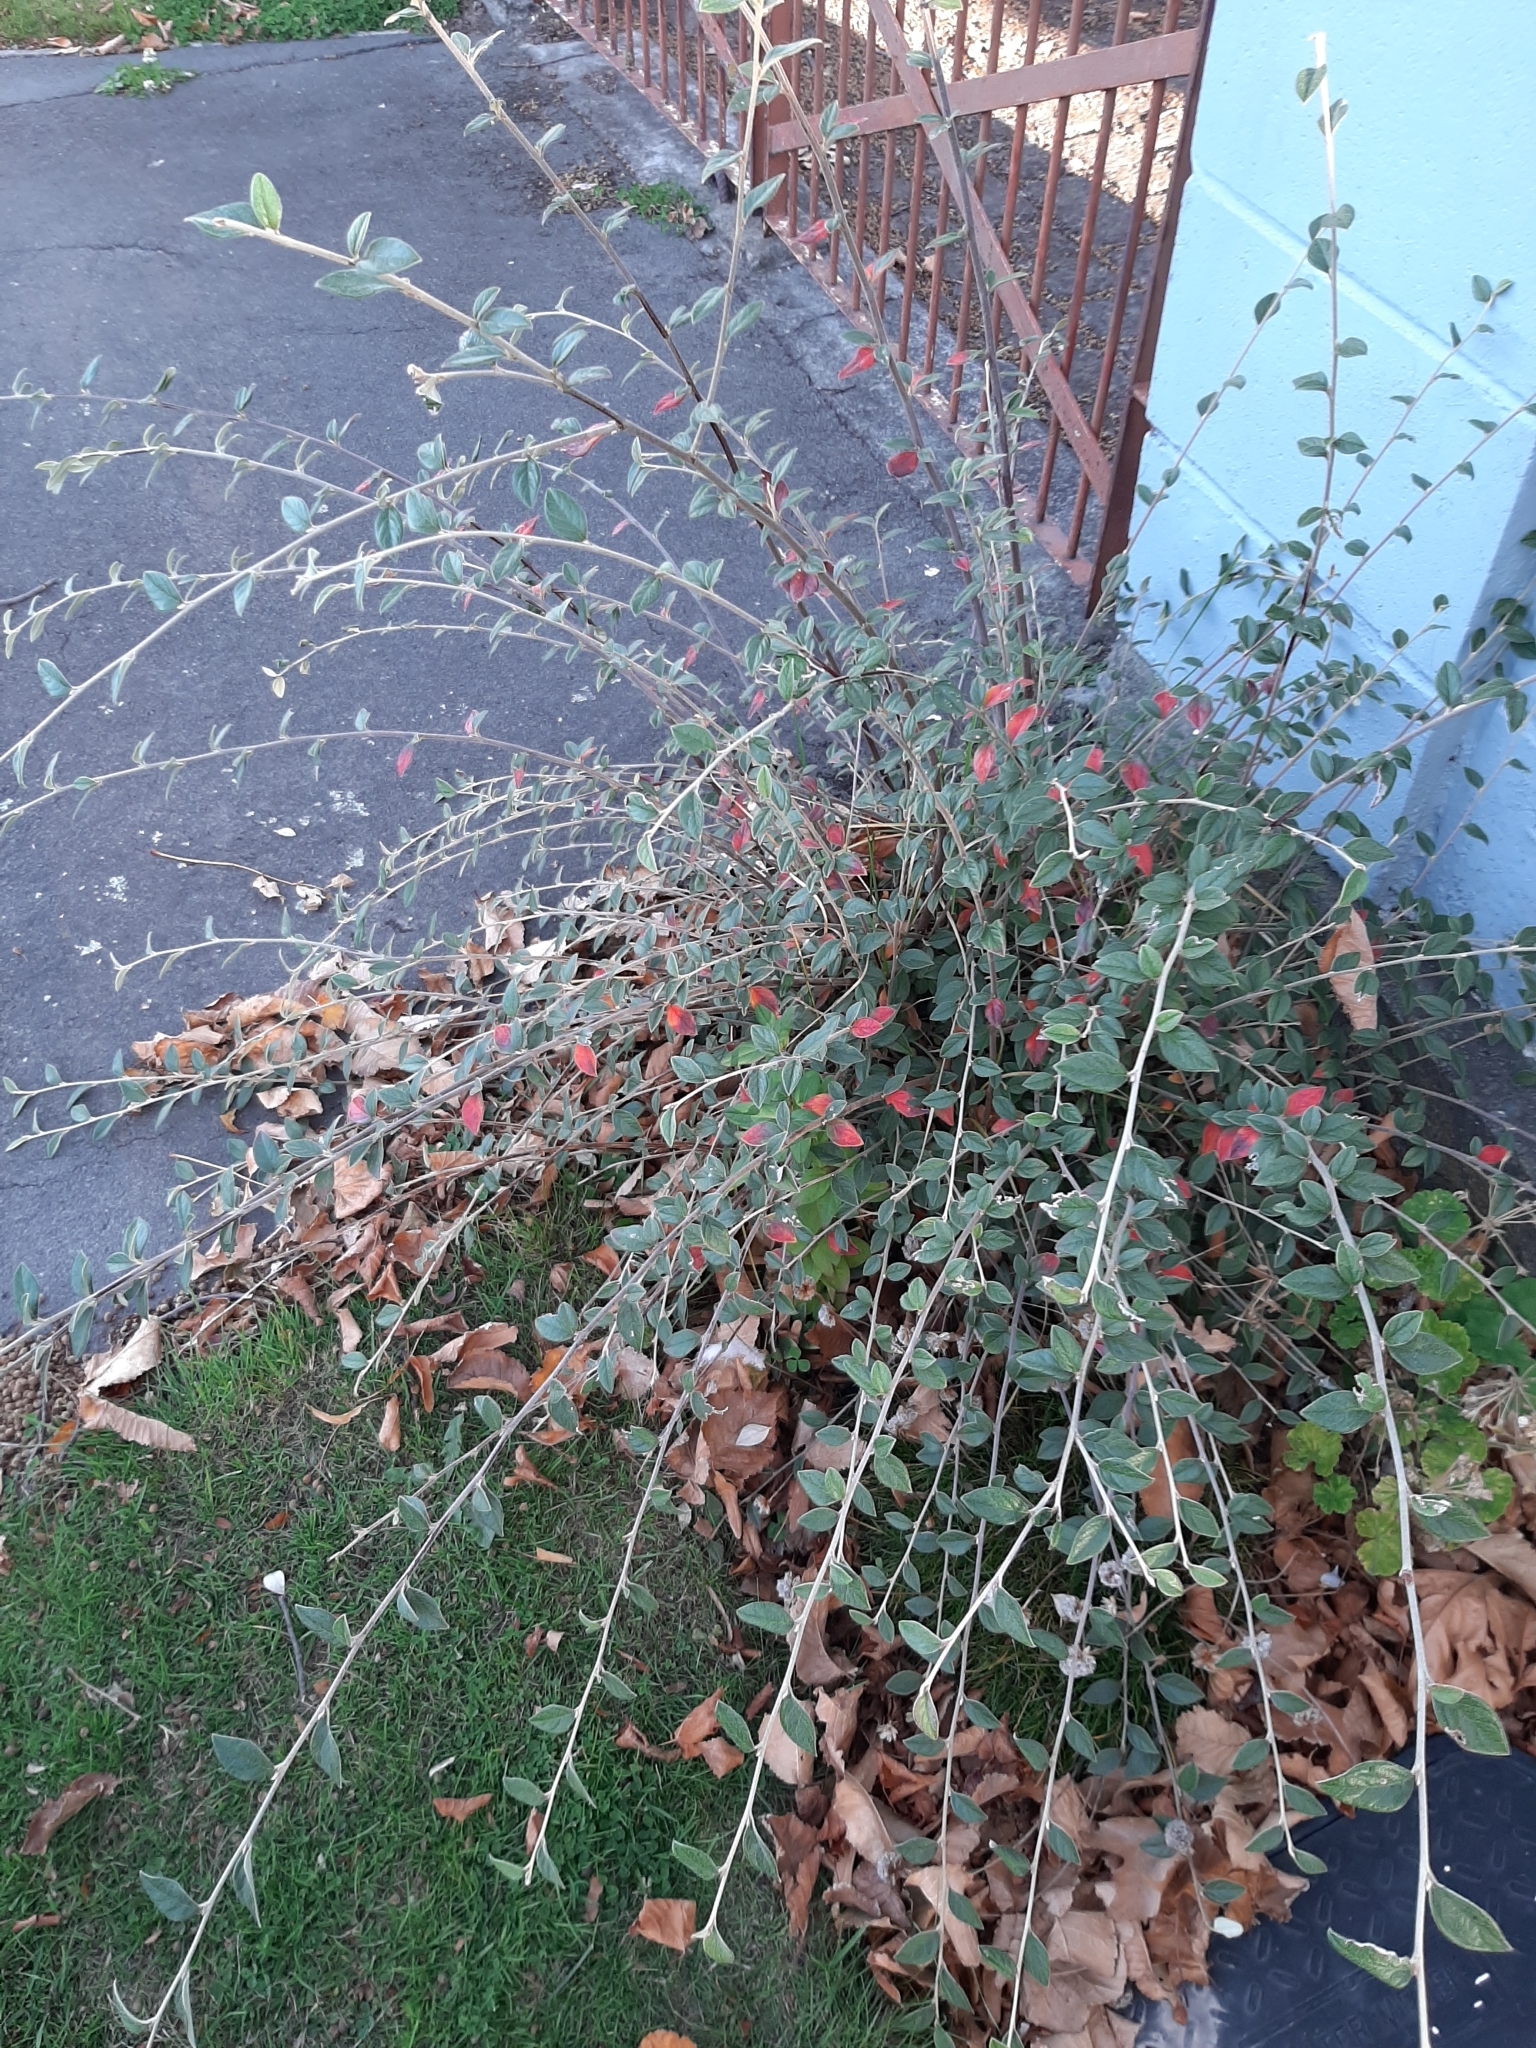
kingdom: Plantae
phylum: Tracheophyta
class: Magnoliopsida
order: Rosales
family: Rosaceae
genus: Cotoneaster
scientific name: Cotoneaster simonsii
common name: Himalayan cotoneaster
